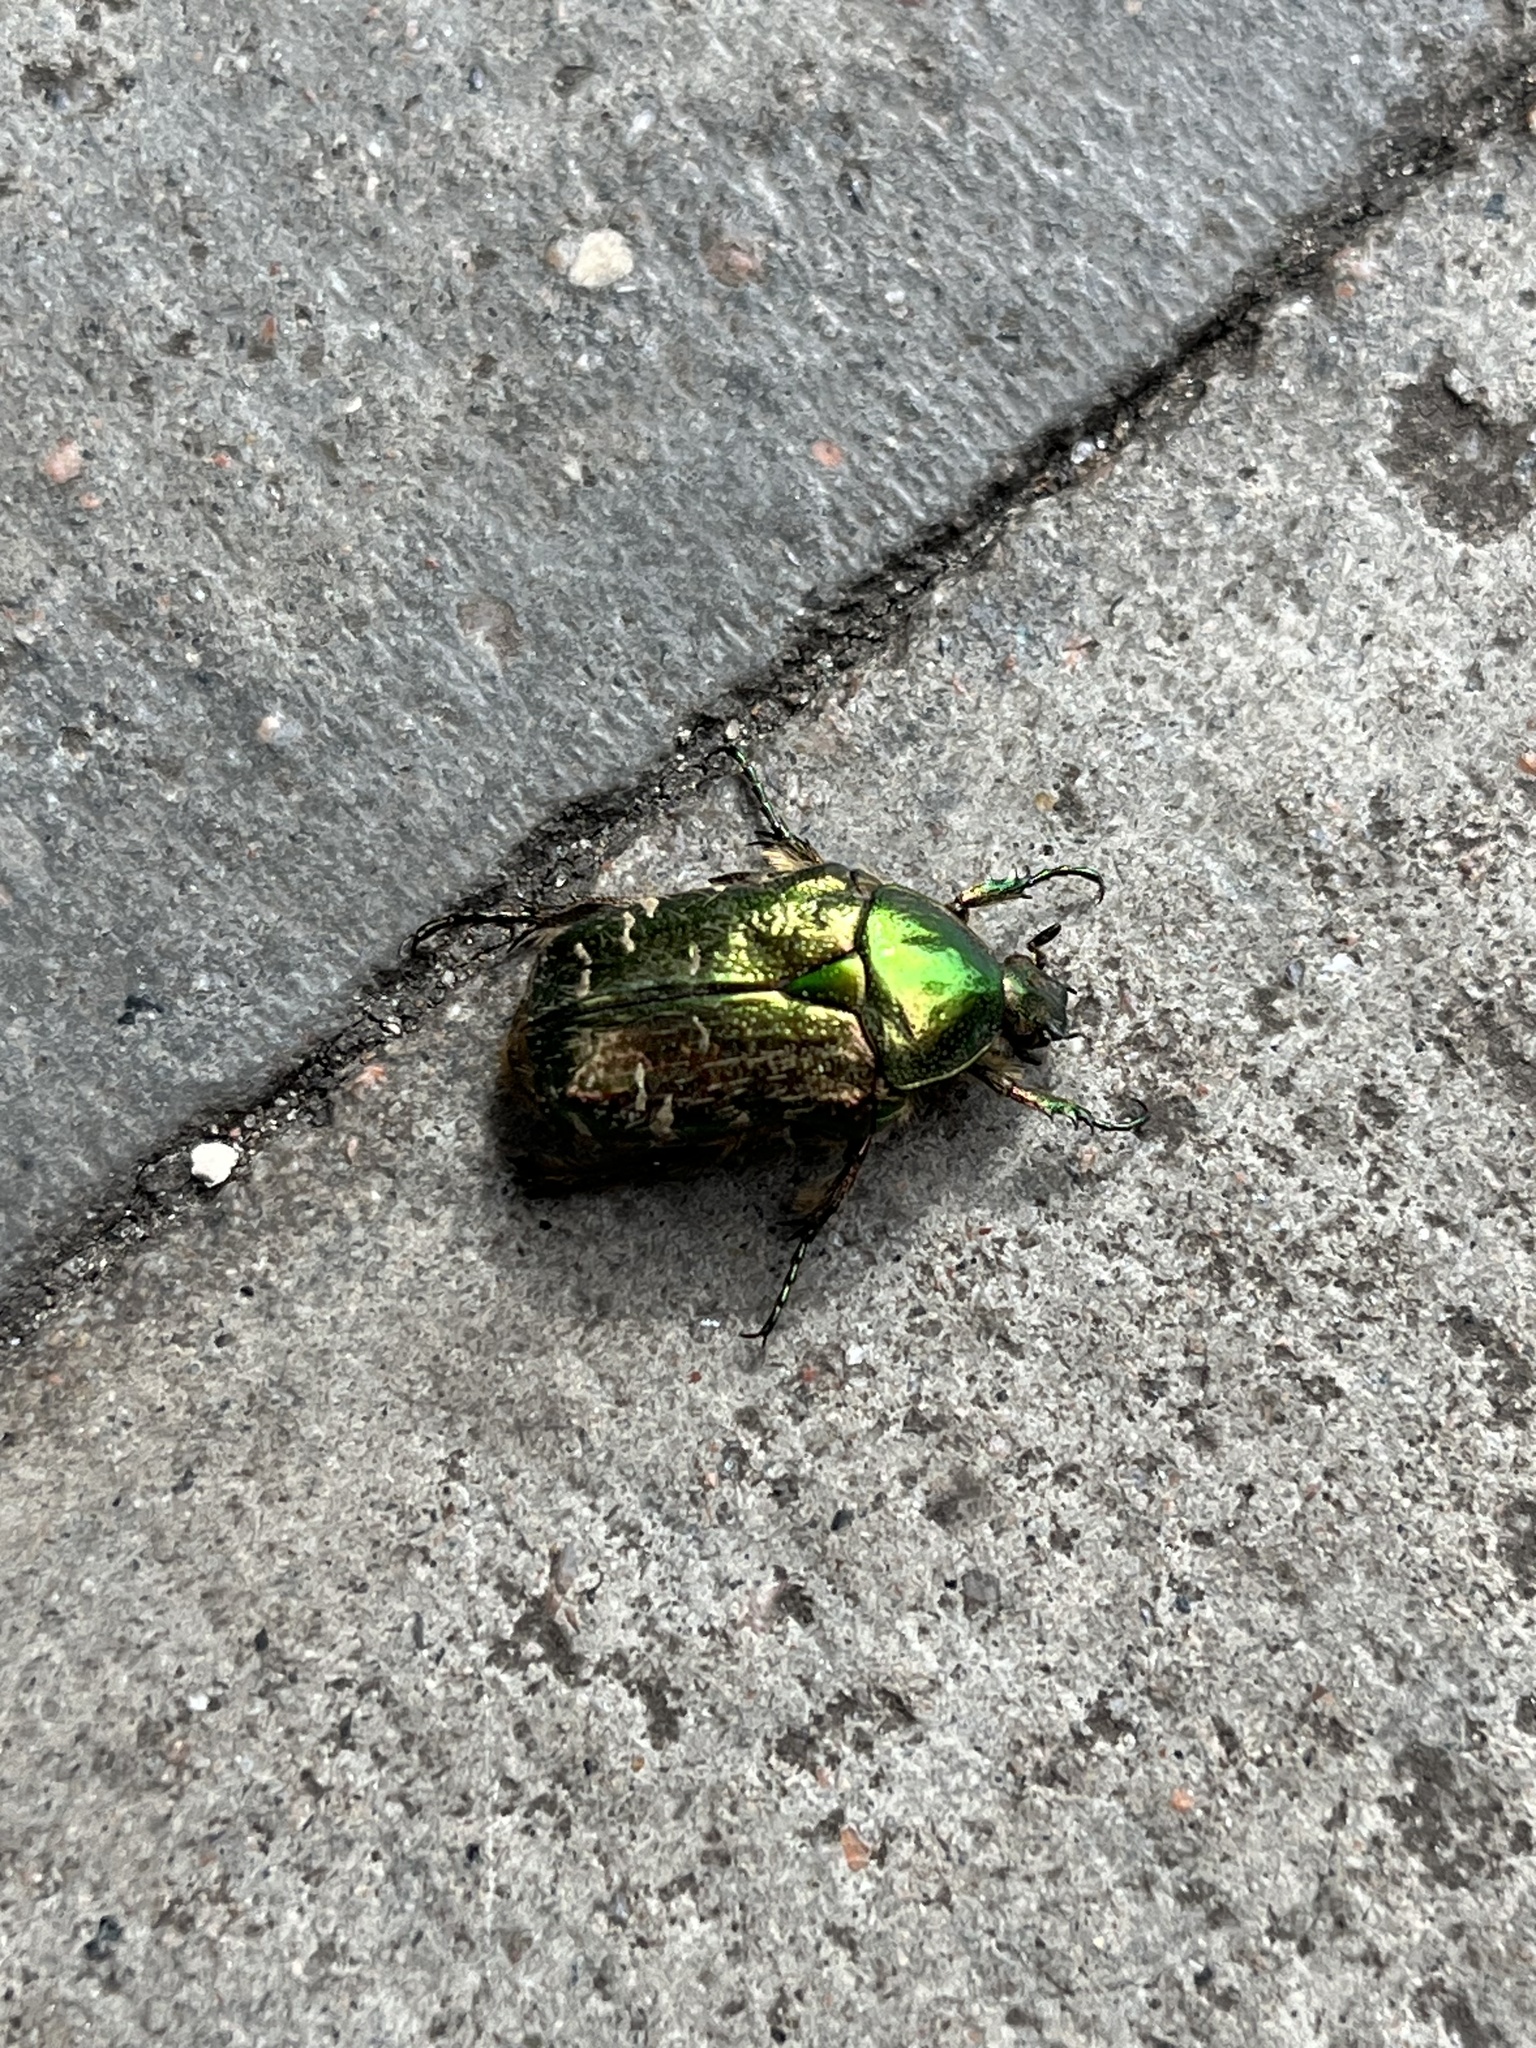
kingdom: Animalia
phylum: Arthropoda
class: Insecta
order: Coleoptera
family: Scarabaeidae
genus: Cetonia
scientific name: Cetonia aurata
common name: Rose chafer
